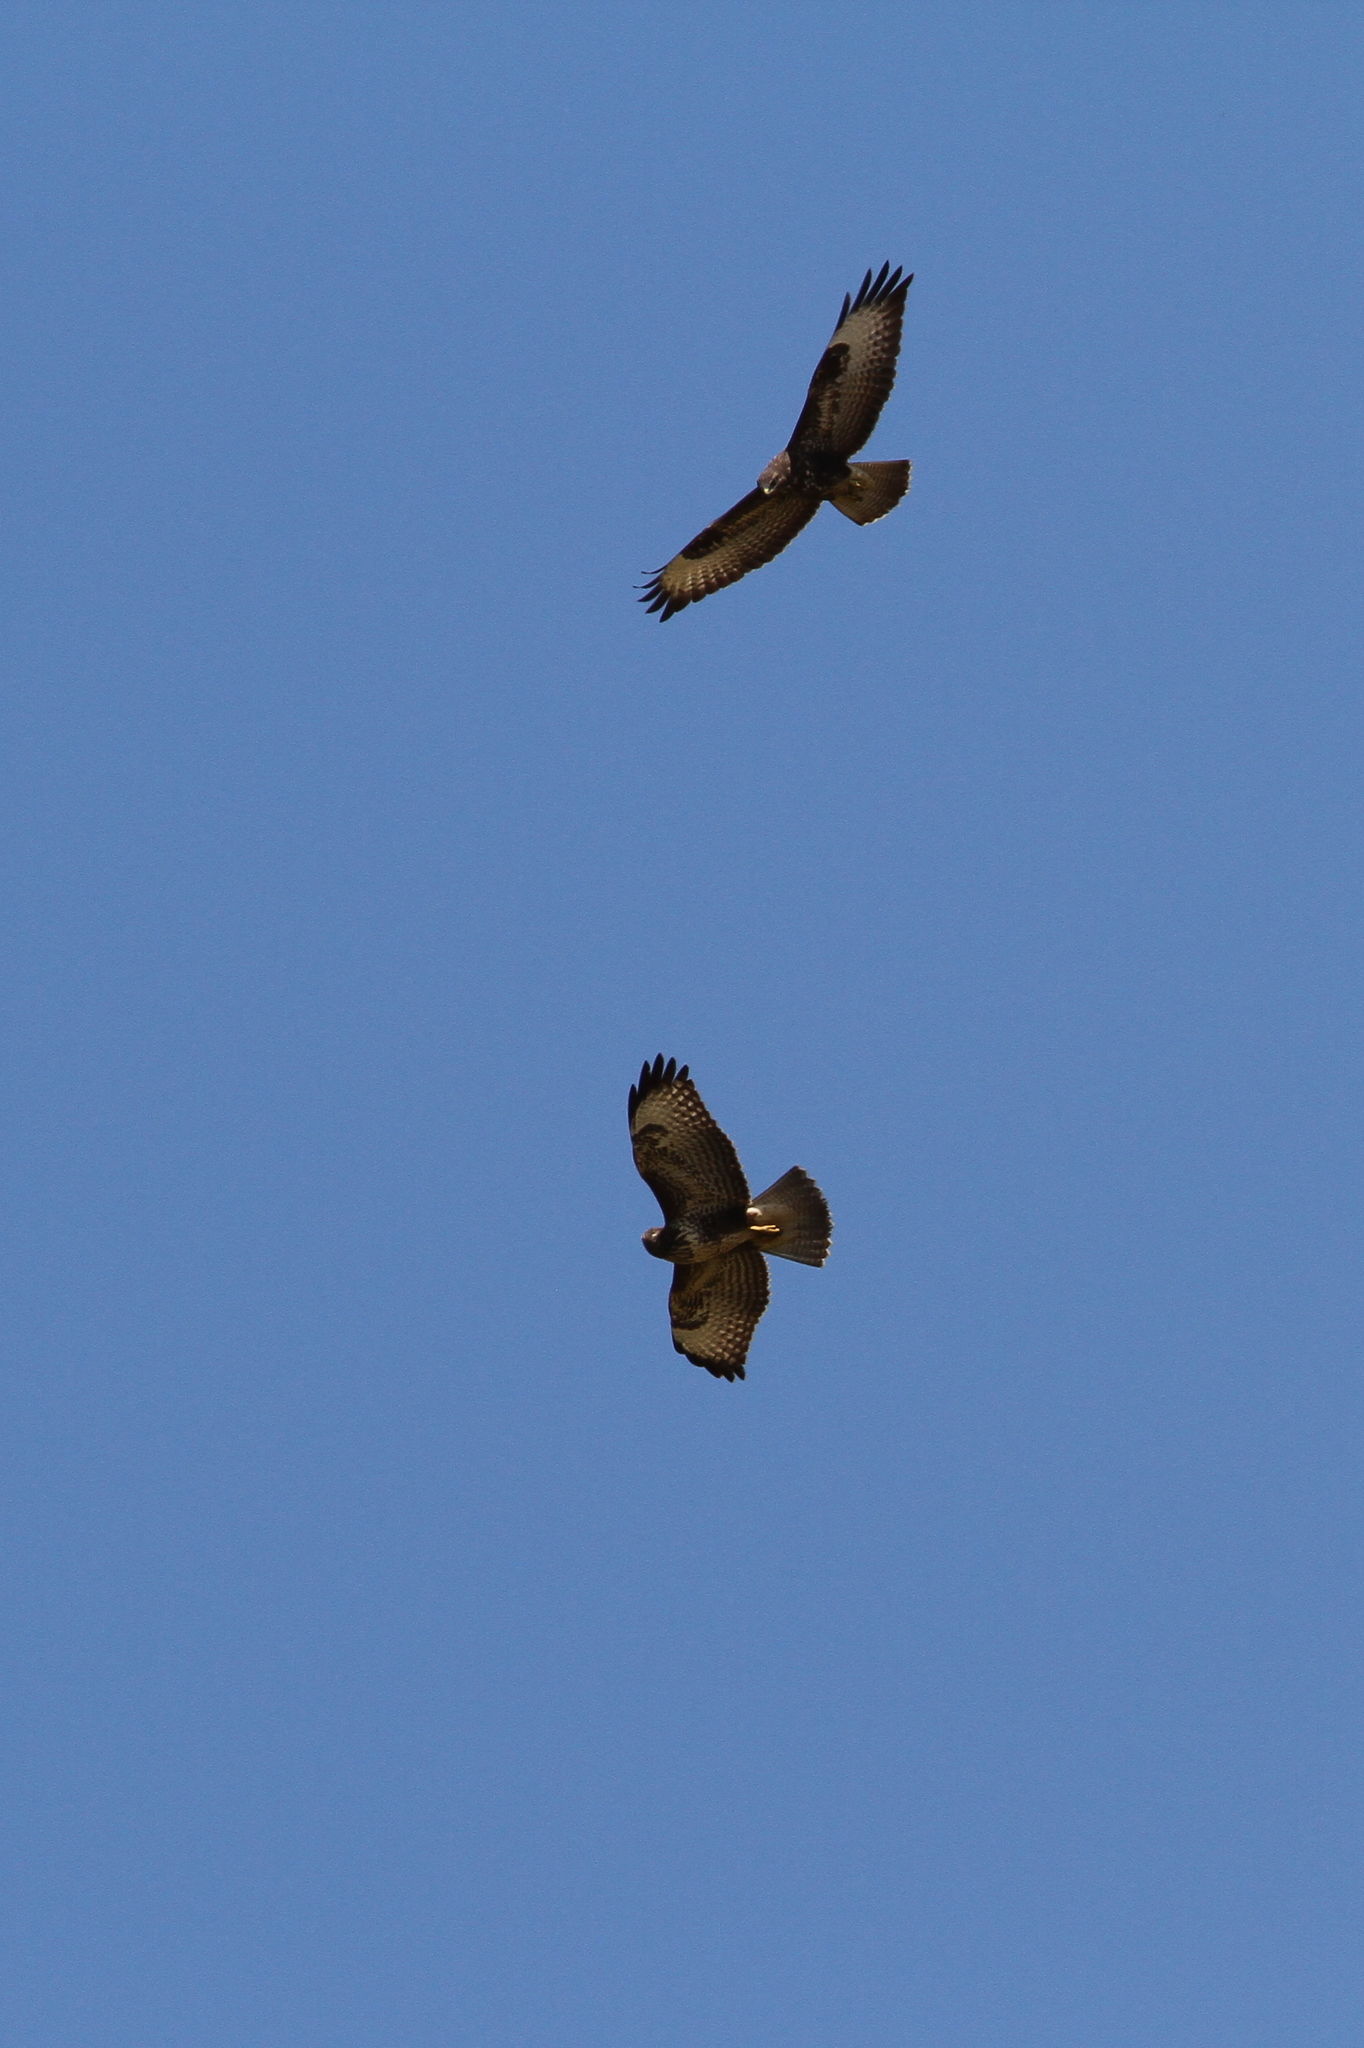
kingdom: Animalia
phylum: Chordata
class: Aves
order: Accipitriformes
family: Accipitridae
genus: Buteo
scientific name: Buteo buteo
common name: Common buzzard
